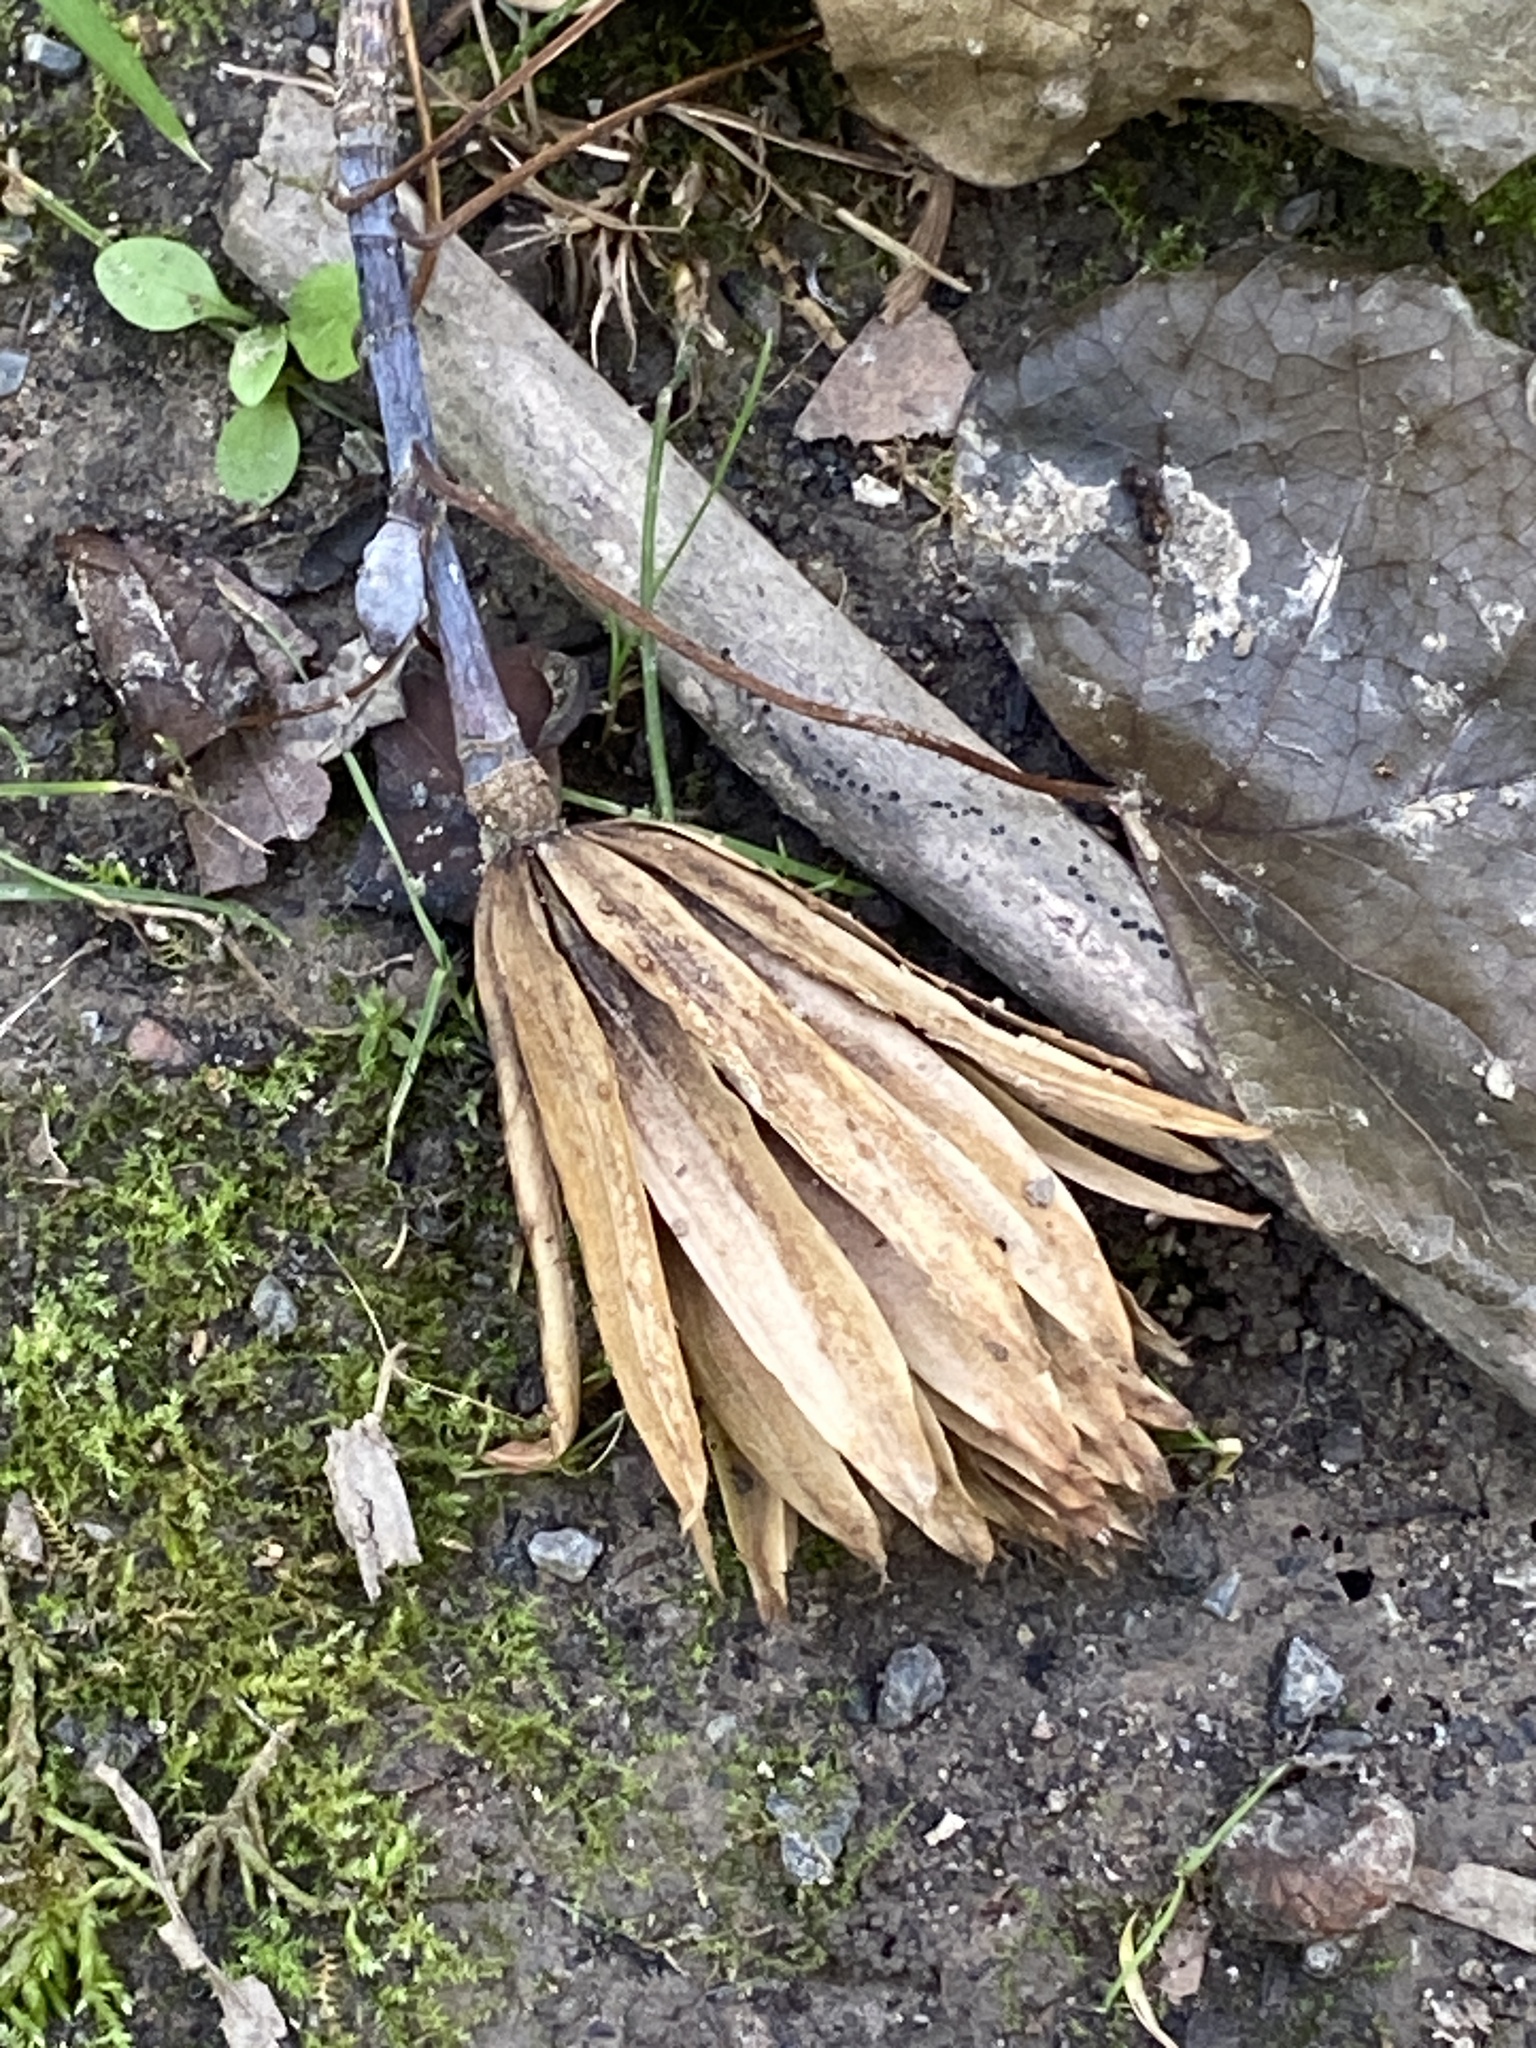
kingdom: Plantae
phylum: Tracheophyta
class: Magnoliopsida
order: Magnoliales
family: Magnoliaceae
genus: Liriodendron
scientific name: Liriodendron tulipifera
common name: Tulip tree
